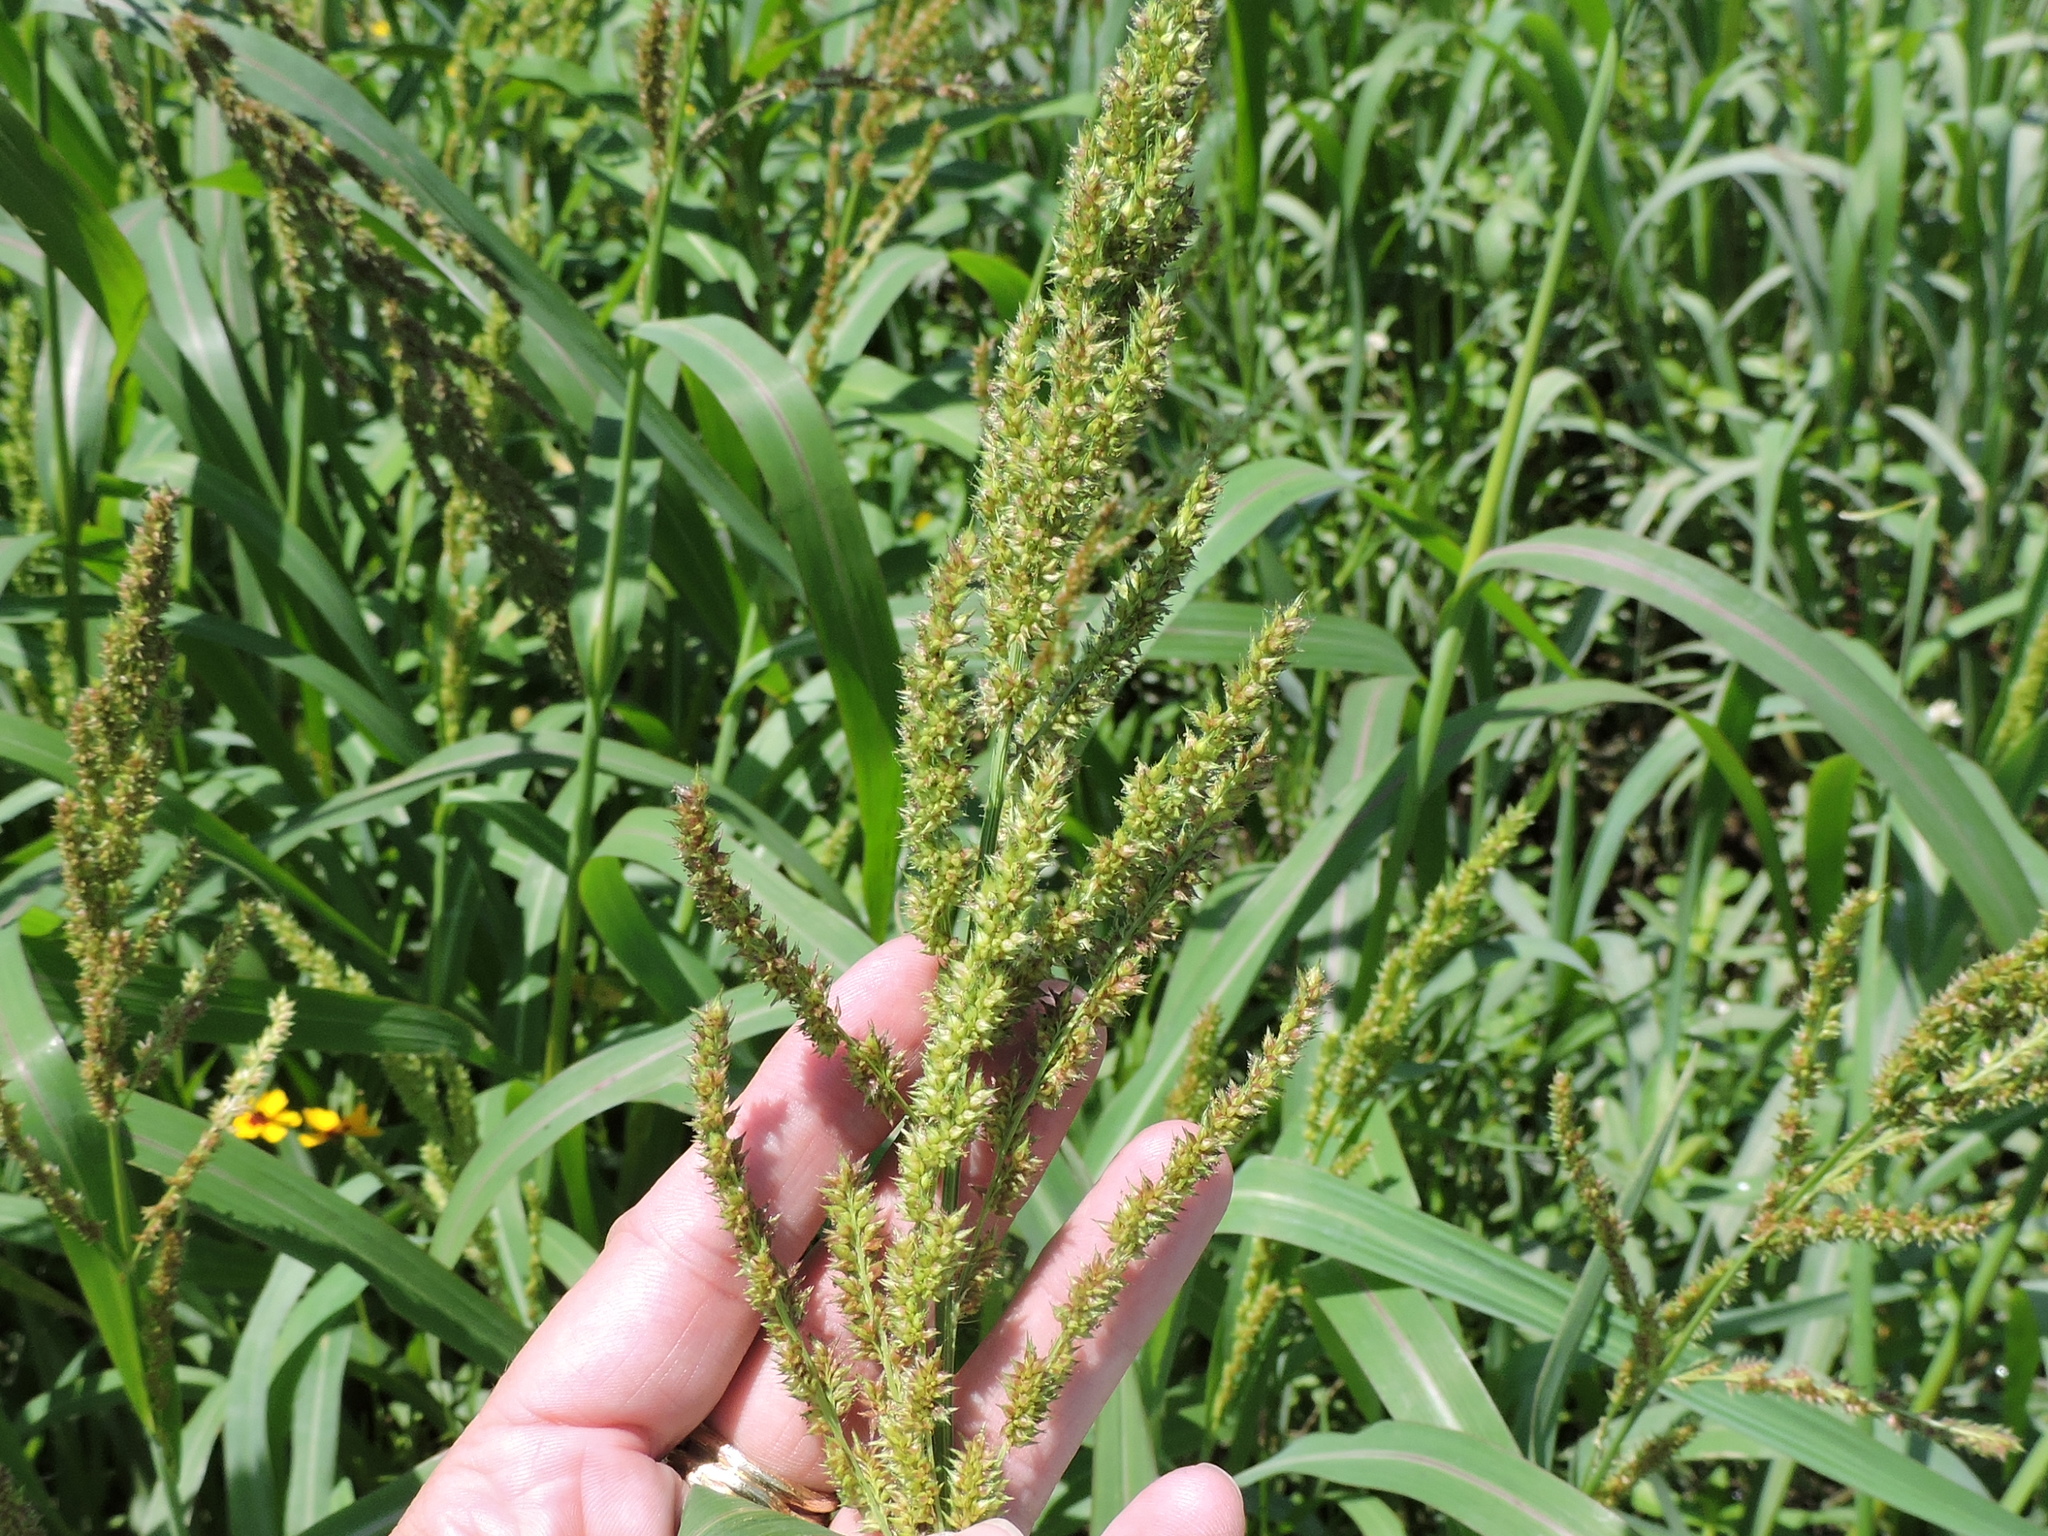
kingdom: Plantae
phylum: Tracheophyta
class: Liliopsida
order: Poales
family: Poaceae
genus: Echinochloa
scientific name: Echinochloa crus-galli
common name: Cockspur
